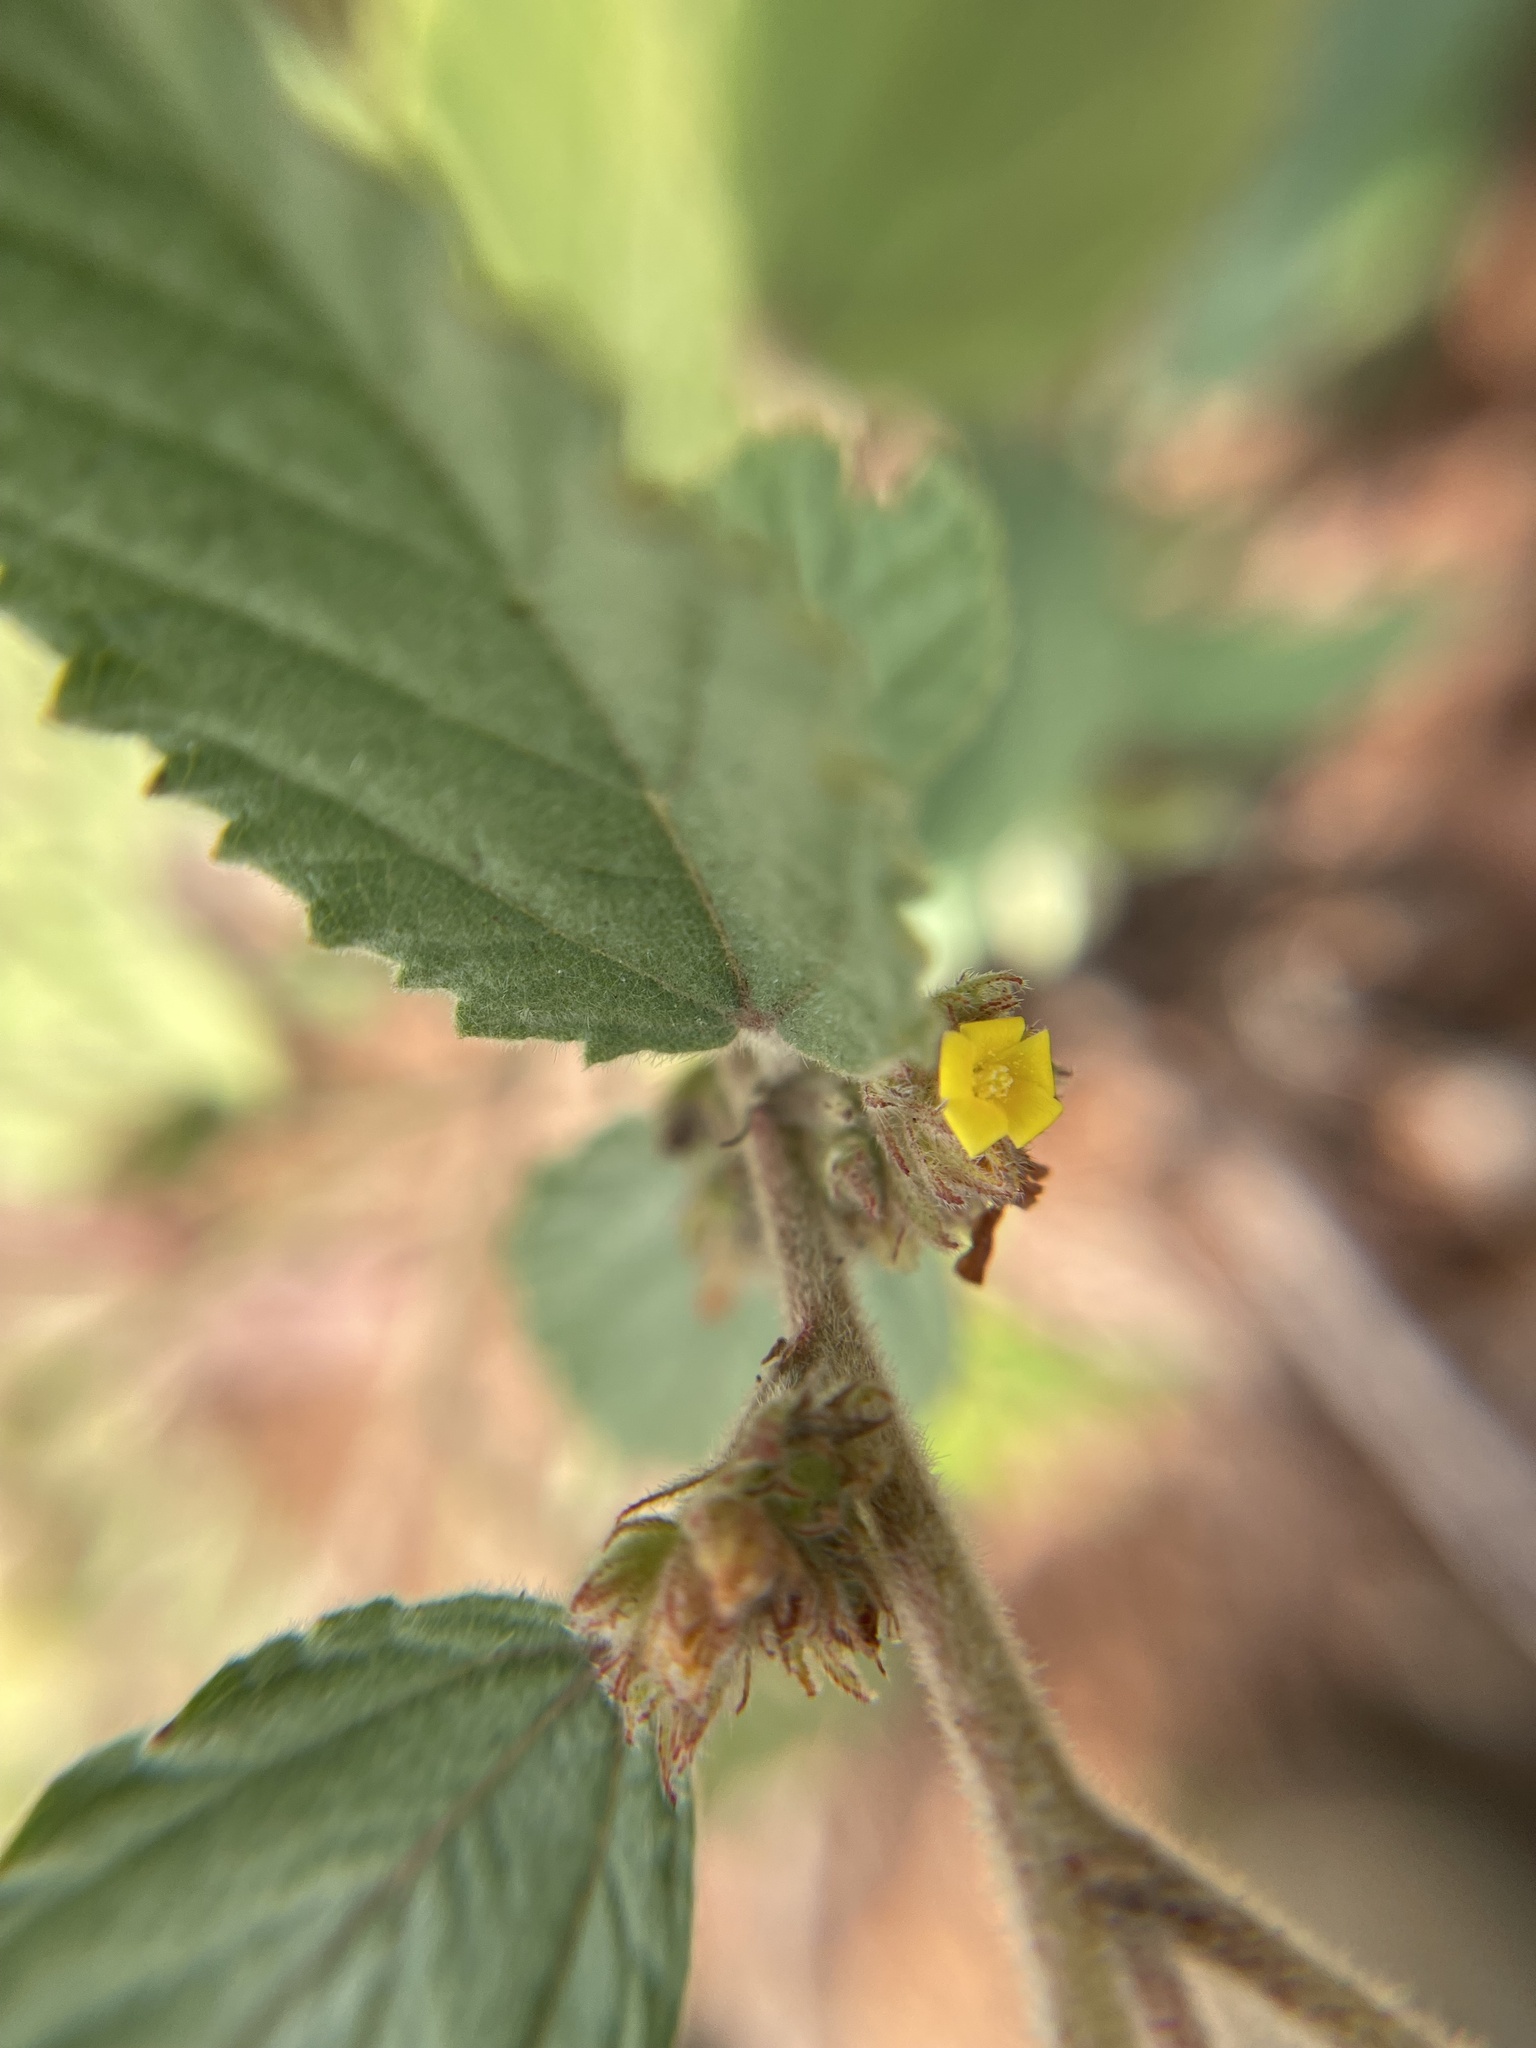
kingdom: Plantae
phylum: Tracheophyta
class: Magnoliopsida
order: Malvales
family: Malvaceae
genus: Waltheria
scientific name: Waltheria indica
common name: Leather-coat
